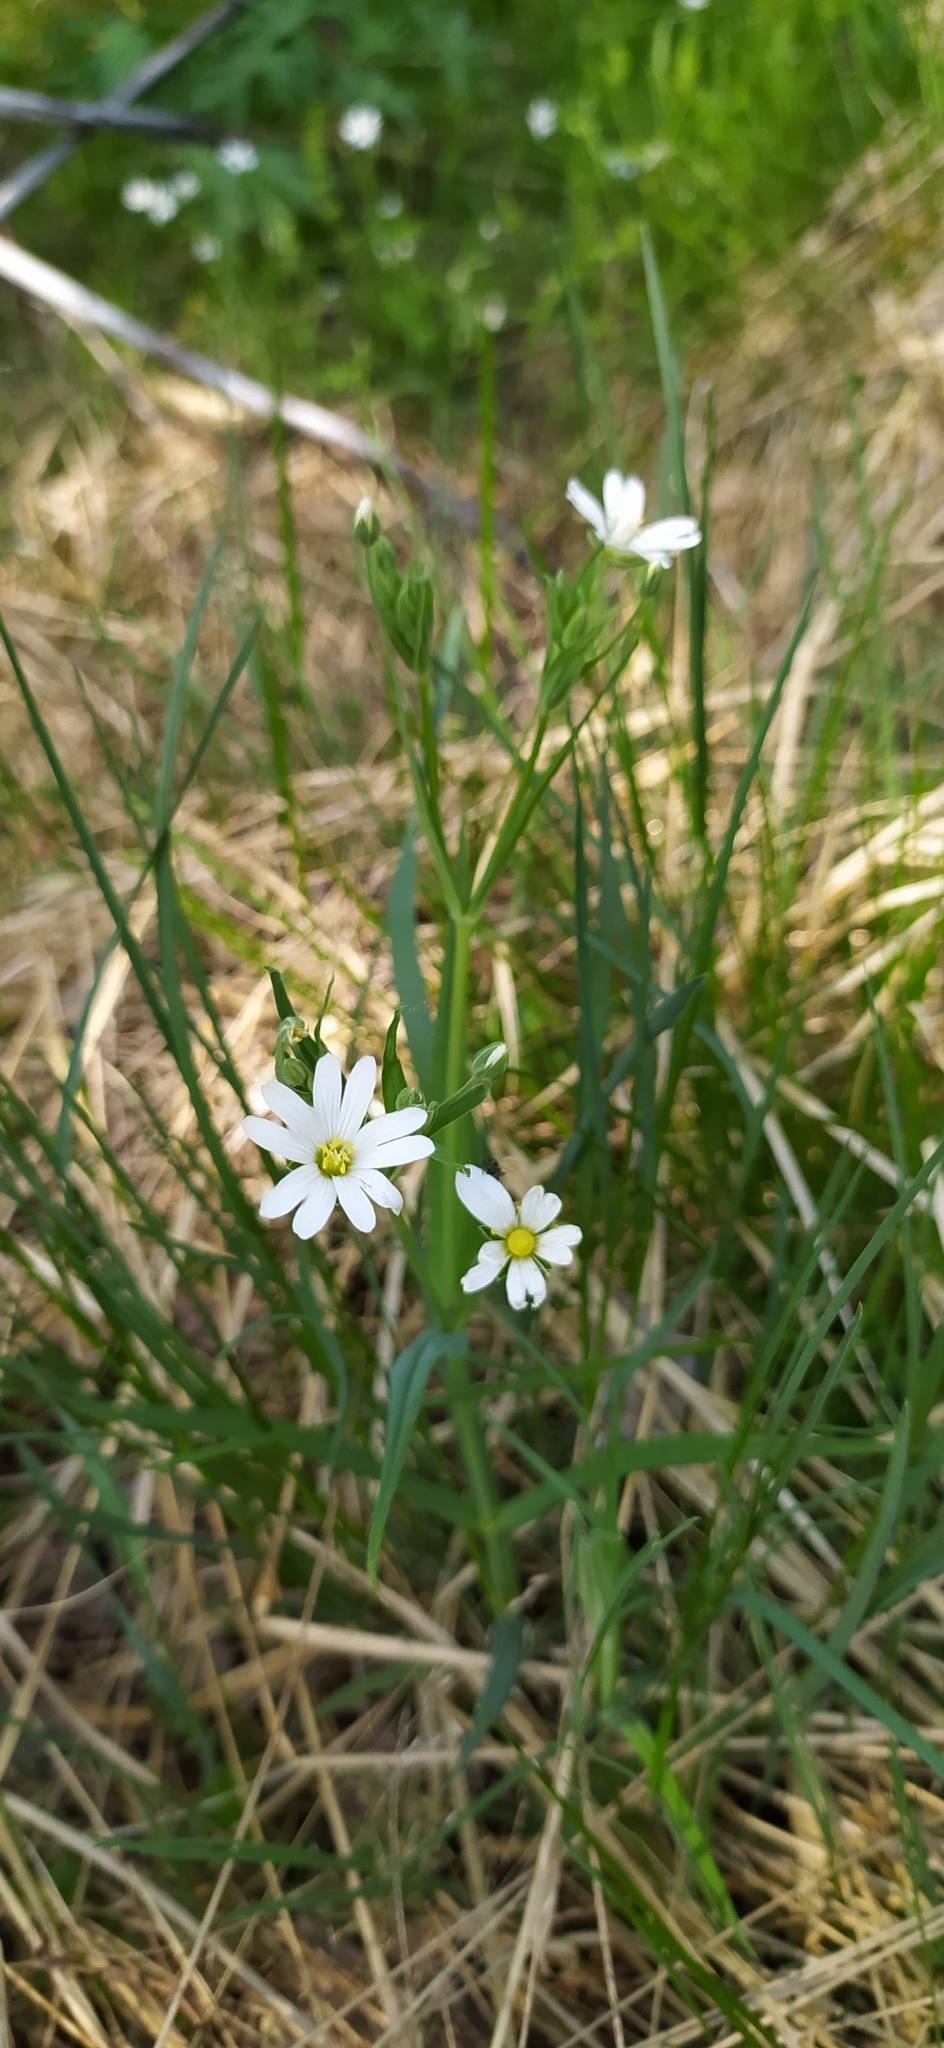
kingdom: Plantae
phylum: Tracheophyta
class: Magnoliopsida
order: Caryophyllales
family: Caryophyllaceae
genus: Rabelera
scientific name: Rabelera holostea
